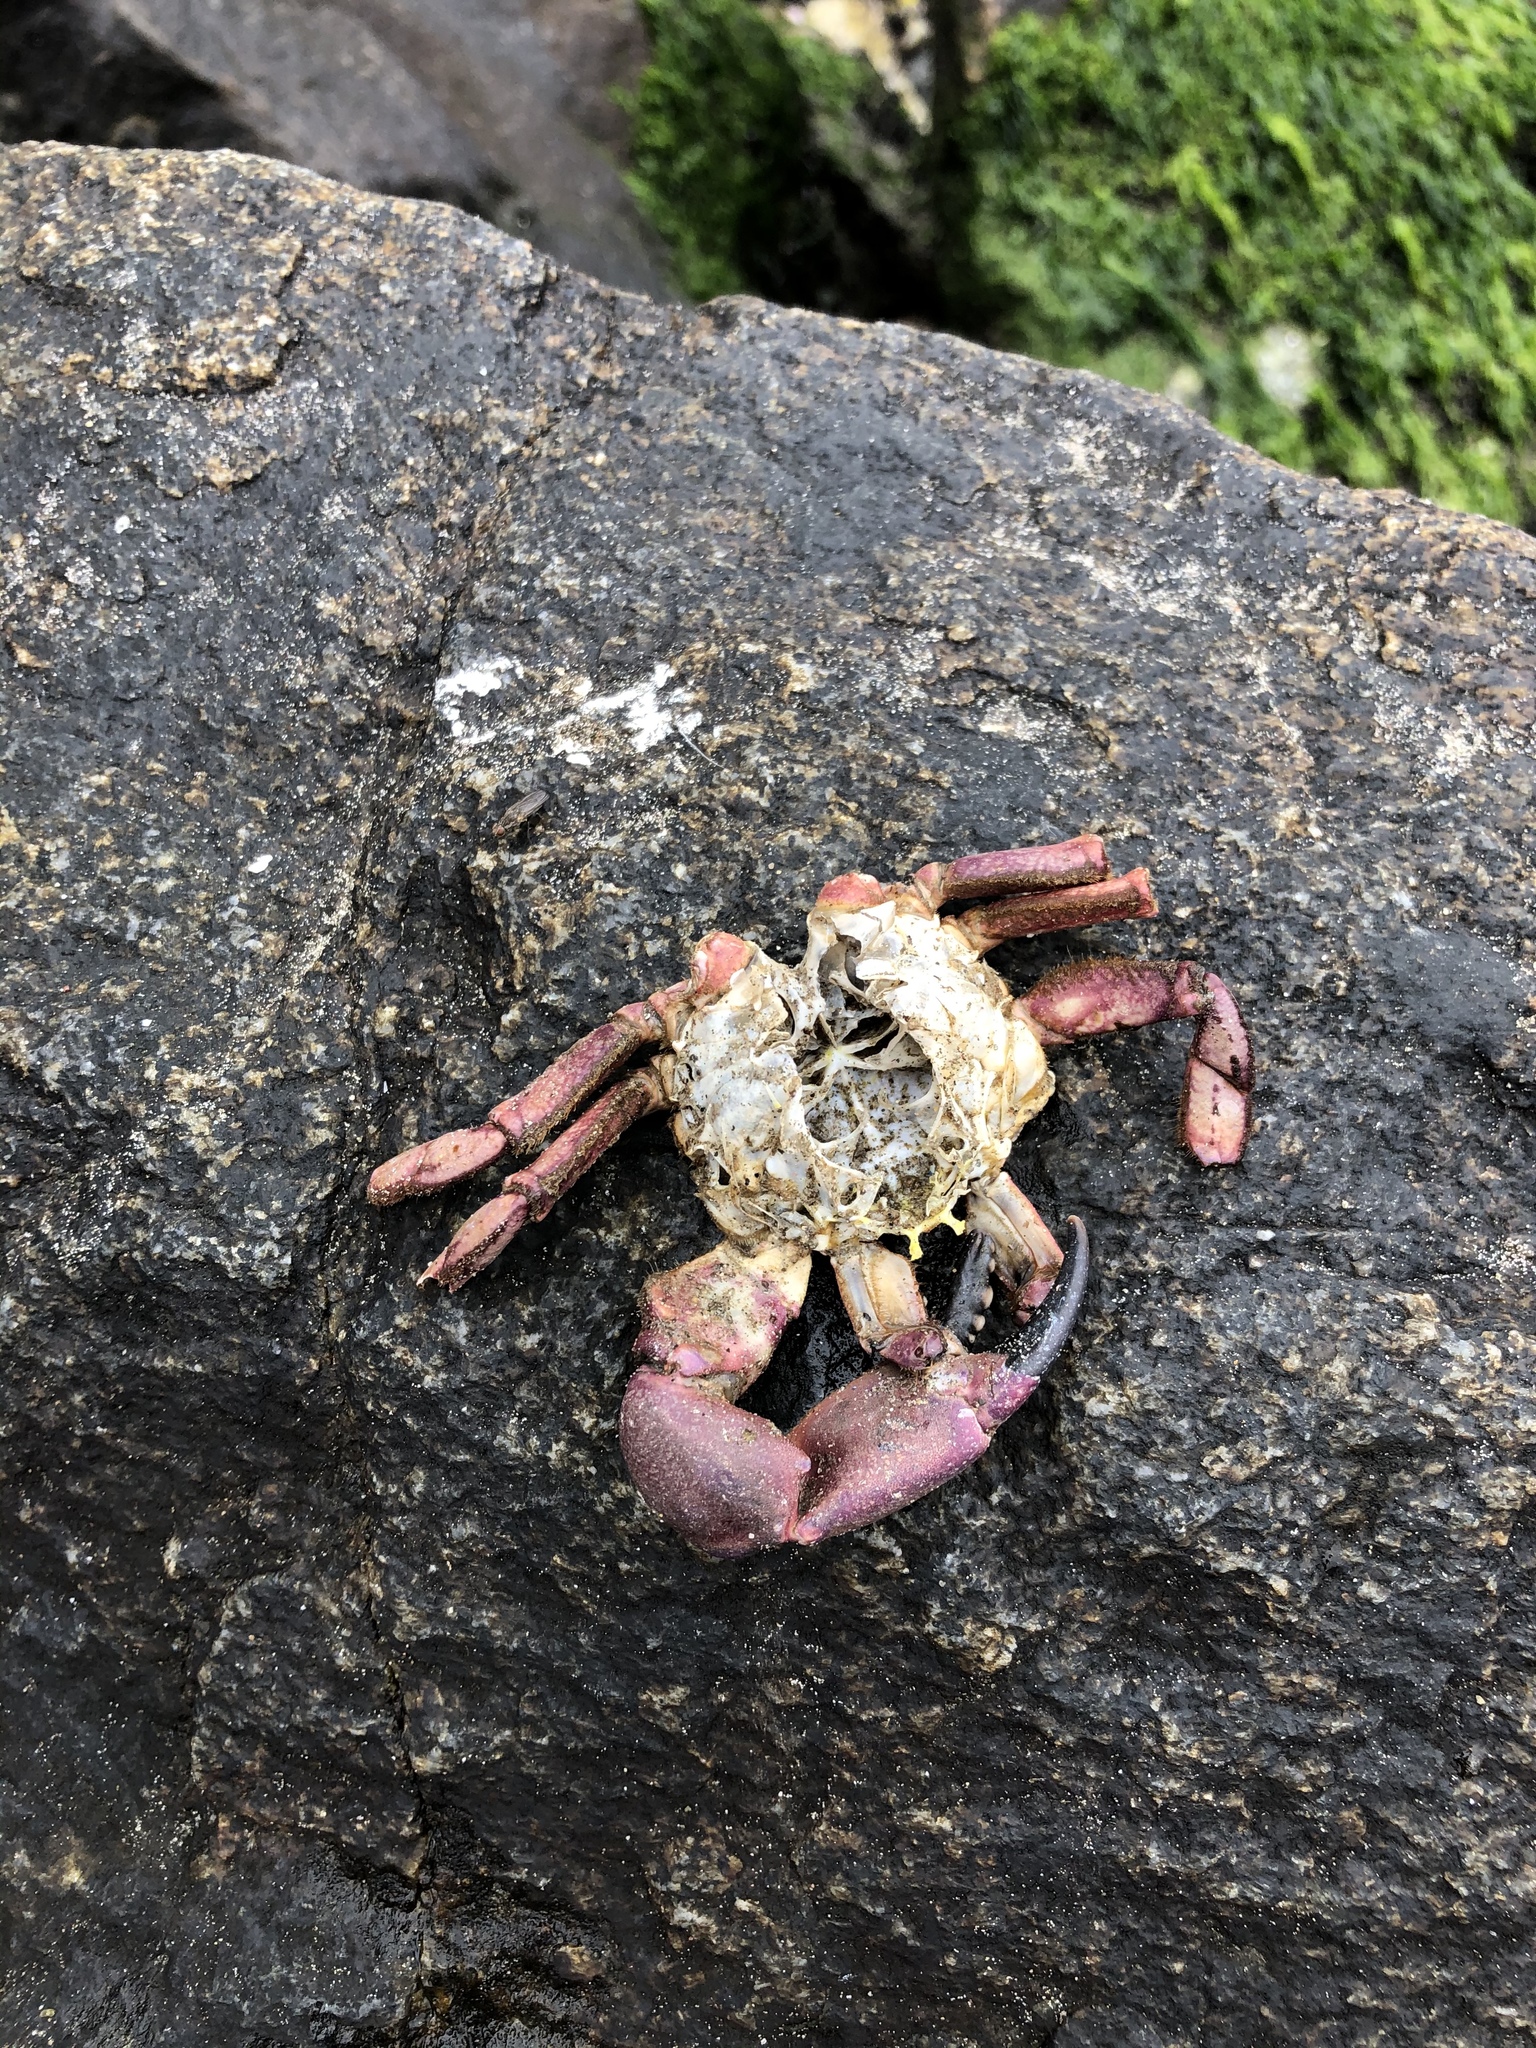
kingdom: Animalia
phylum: Arthropoda
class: Malacostraca
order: Decapoda
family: Platyxanthidae
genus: Platyxanthus
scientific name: Platyxanthus orbignyi
